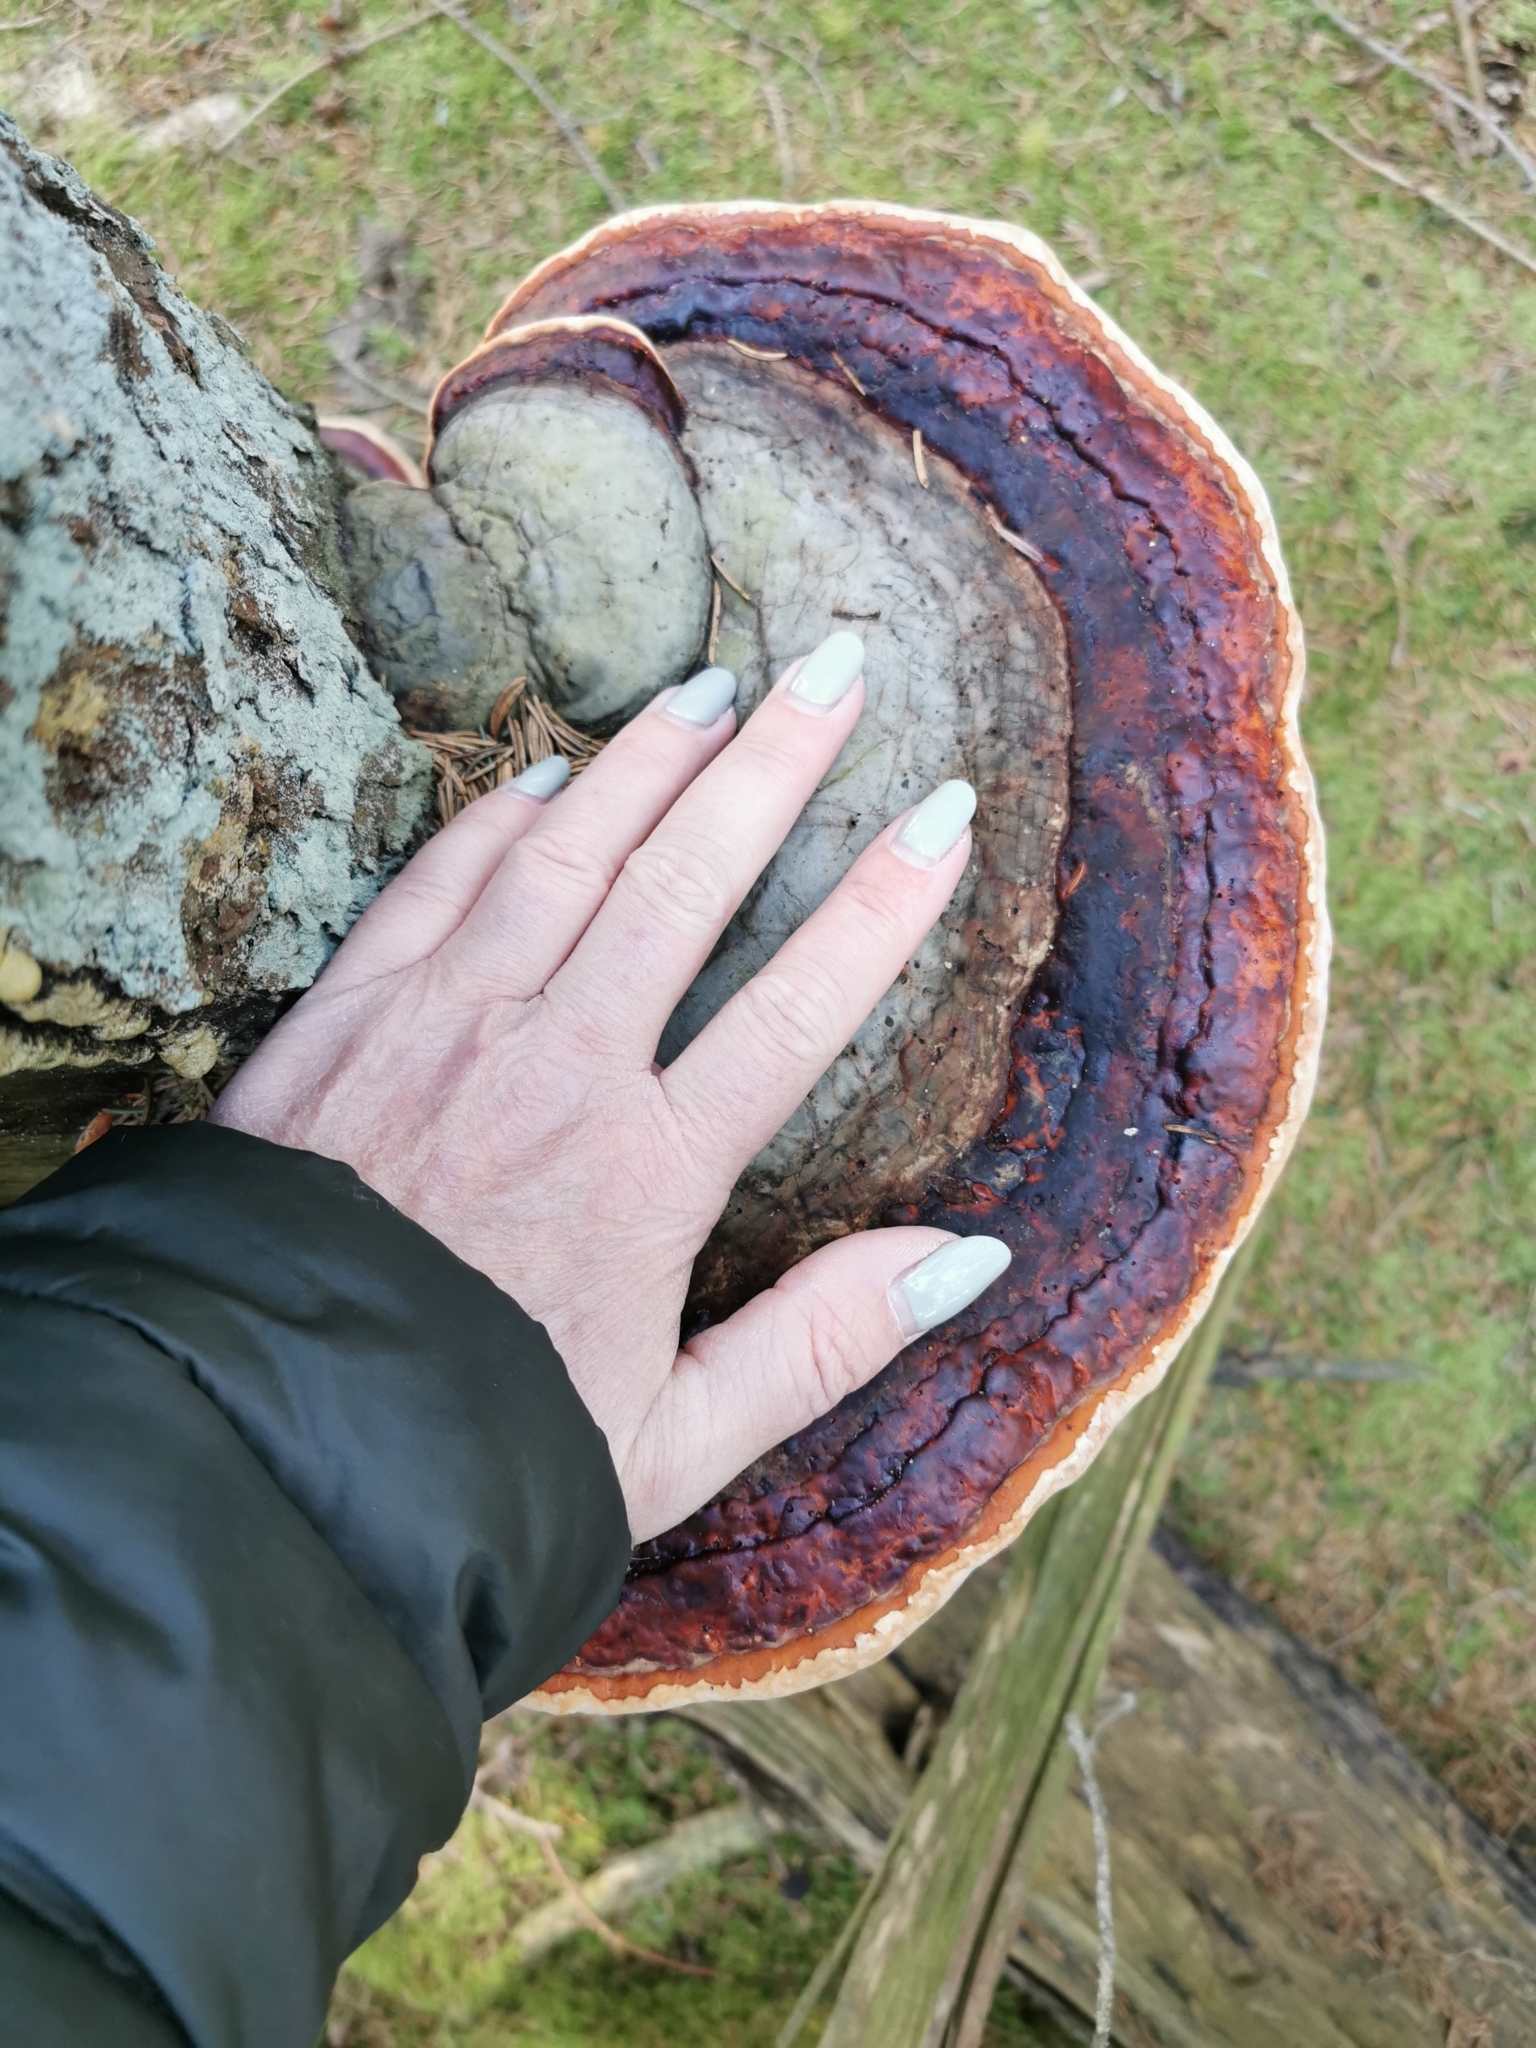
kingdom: Fungi
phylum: Basidiomycota
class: Agaricomycetes
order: Polyporales
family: Fomitopsidaceae
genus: Fomitopsis
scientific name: Fomitopsis pinicola
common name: Red-belted bracket
